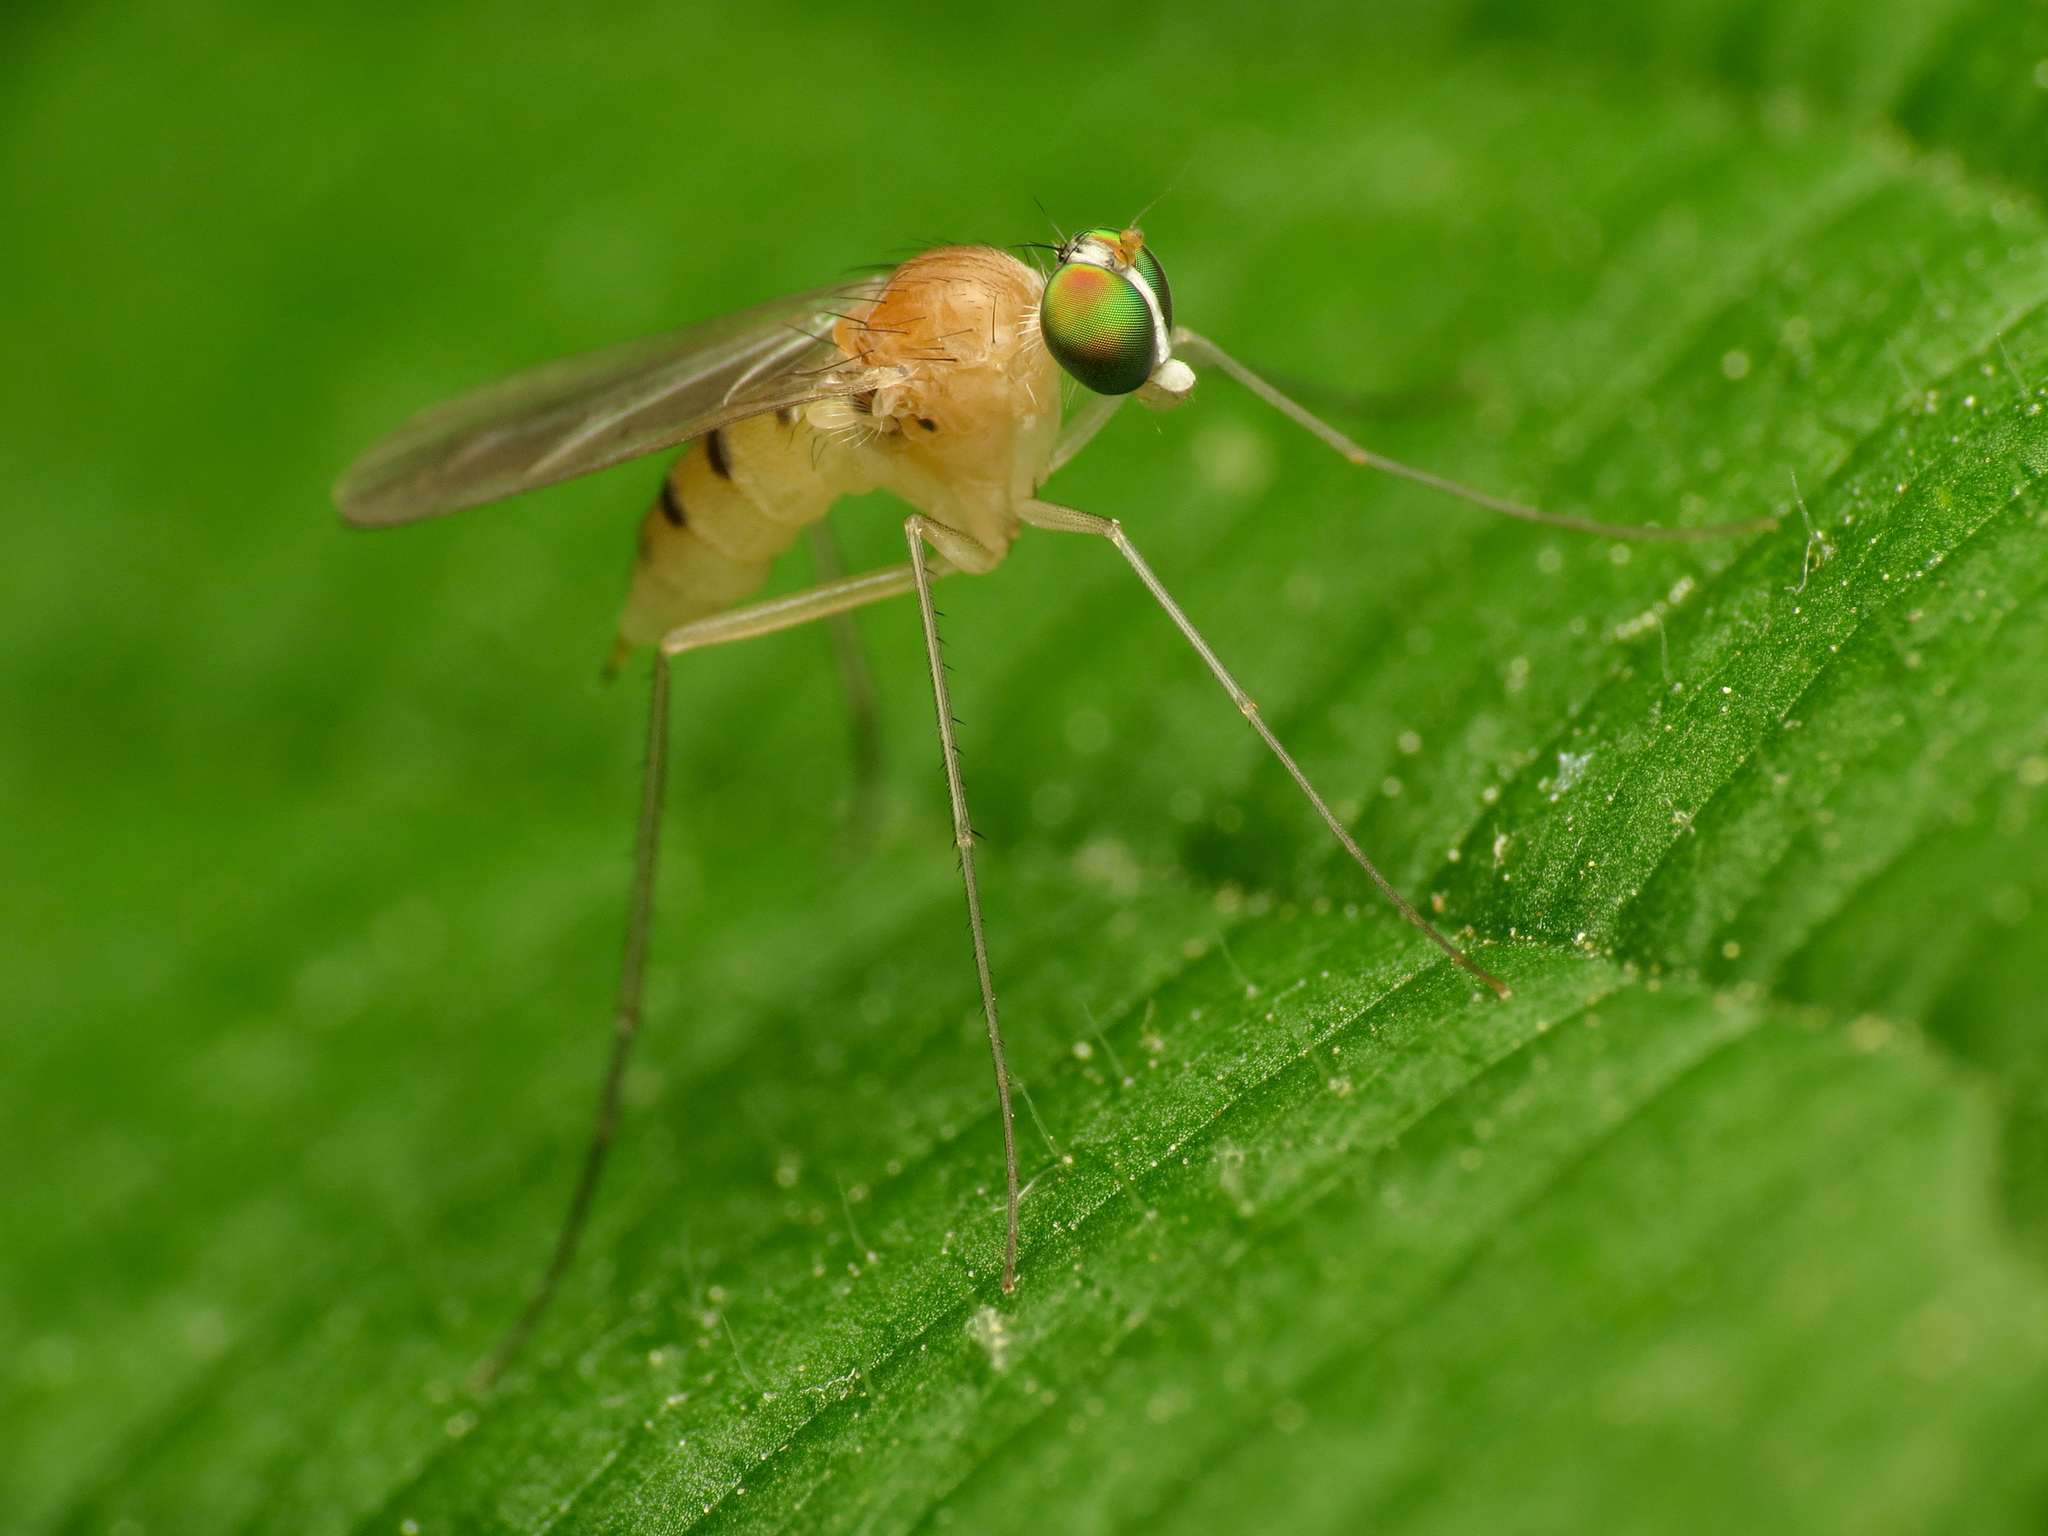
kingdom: Animalia
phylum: Arthropoda
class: Insecta
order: Diptera
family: Dolichopodidae
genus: Neurigona
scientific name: Neurigona disjuncta
